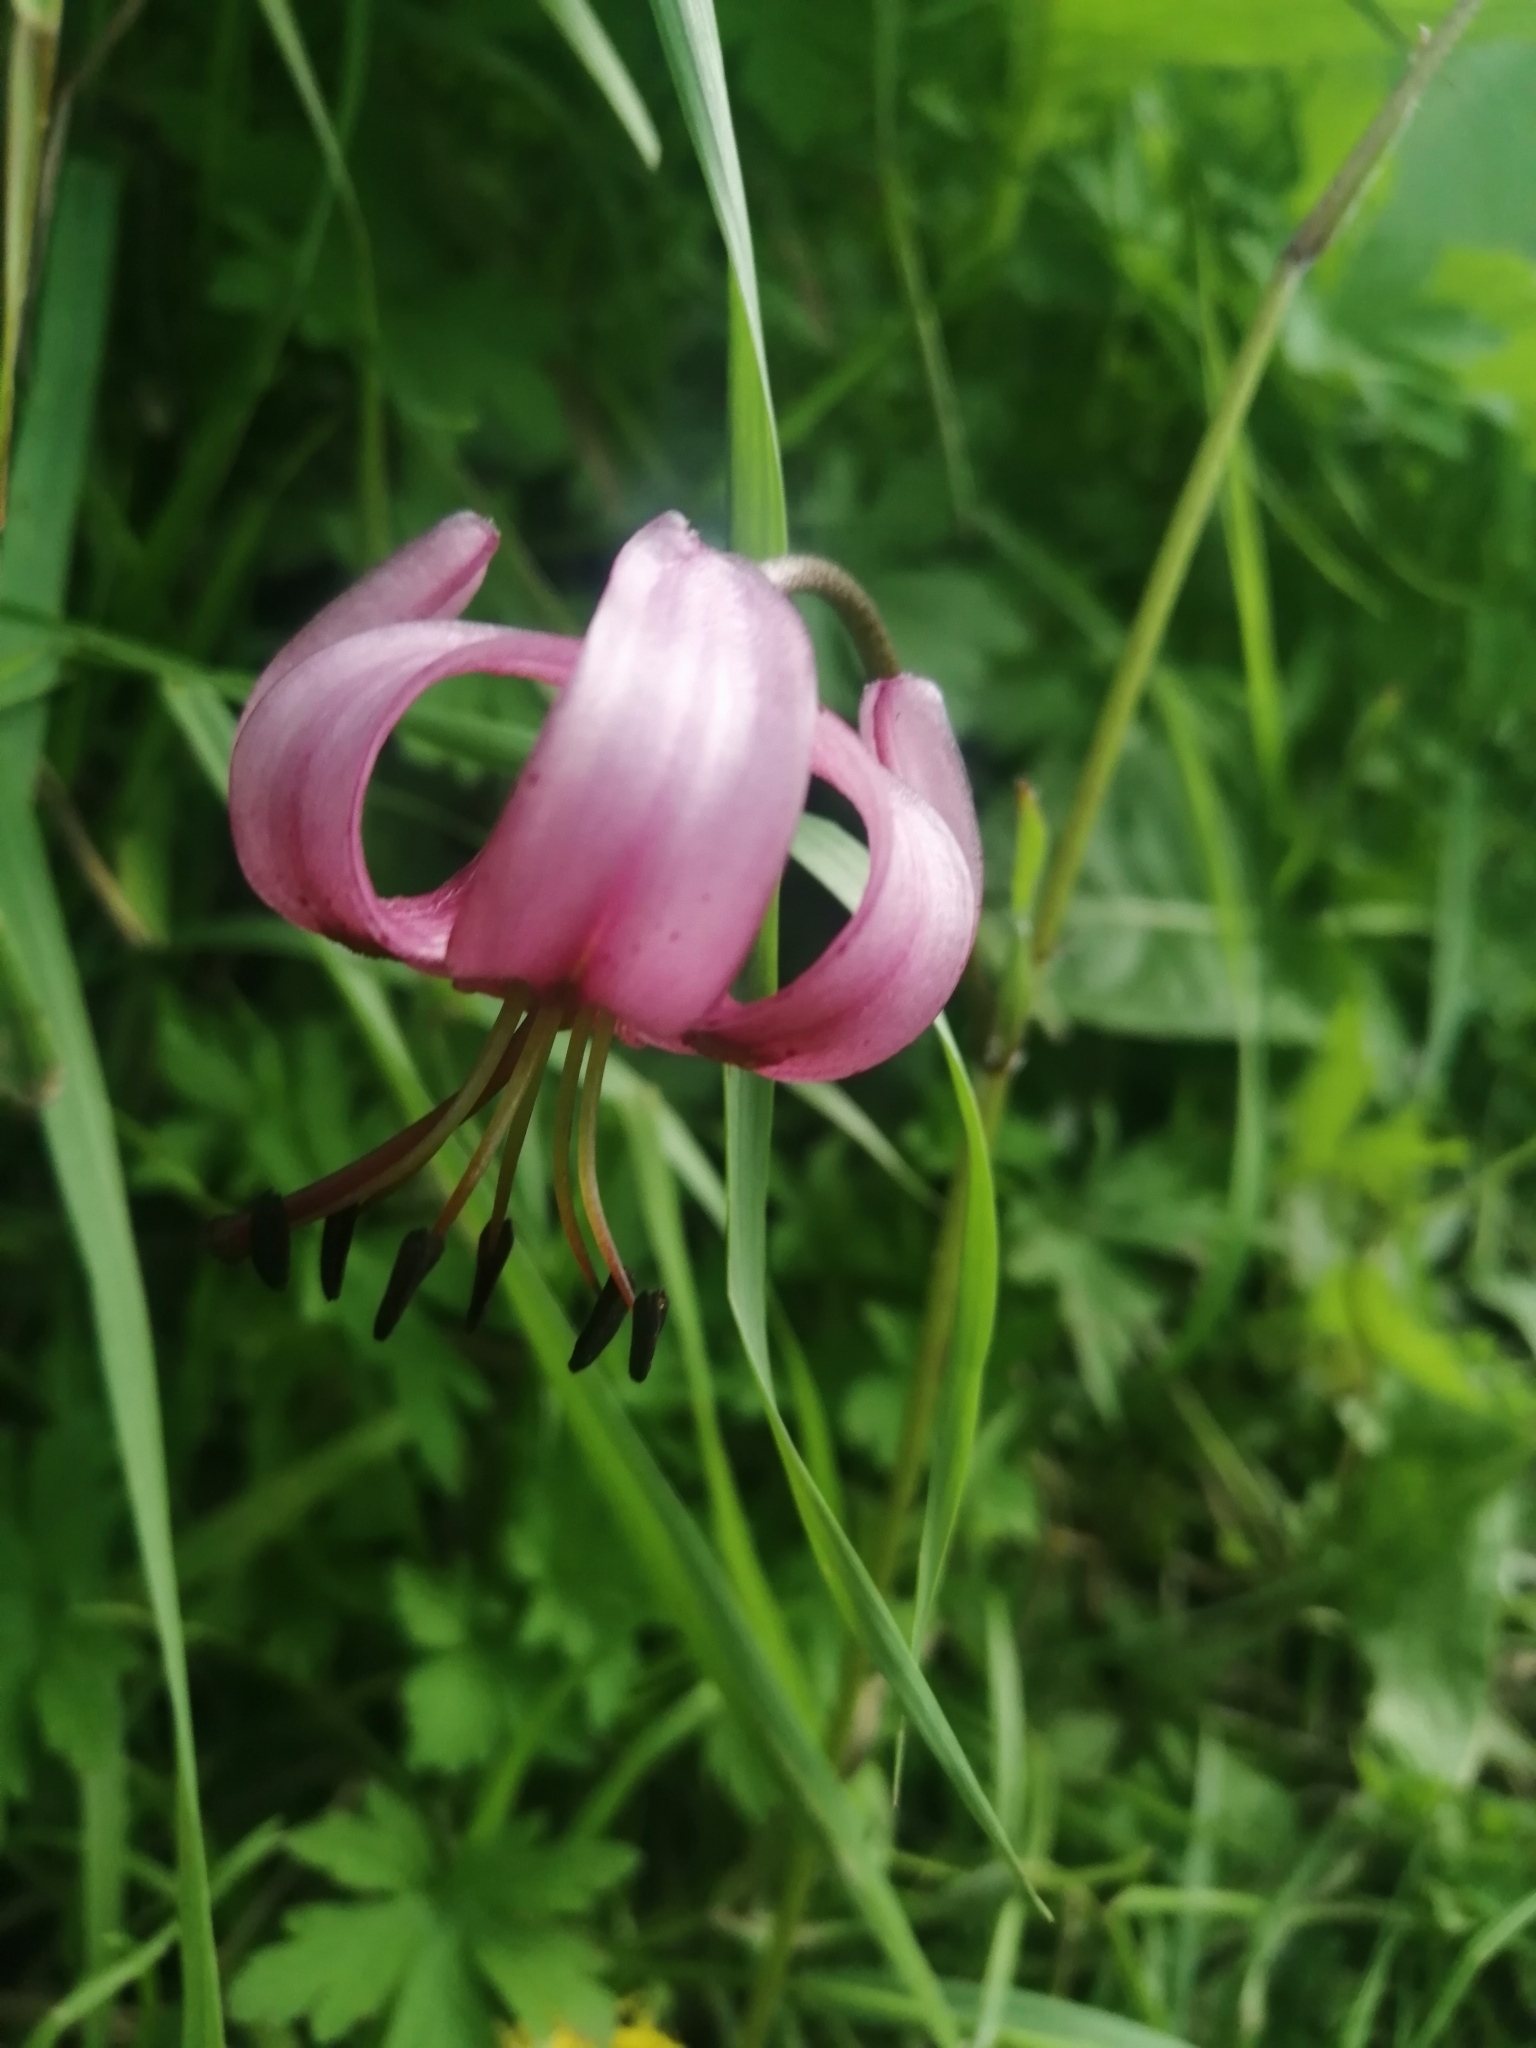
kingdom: Plantae
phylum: Tracheophyta
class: Liliopsida
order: Liliales
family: Liliaceae
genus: Lilium
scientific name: Lilium martagon
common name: Martagon lily
